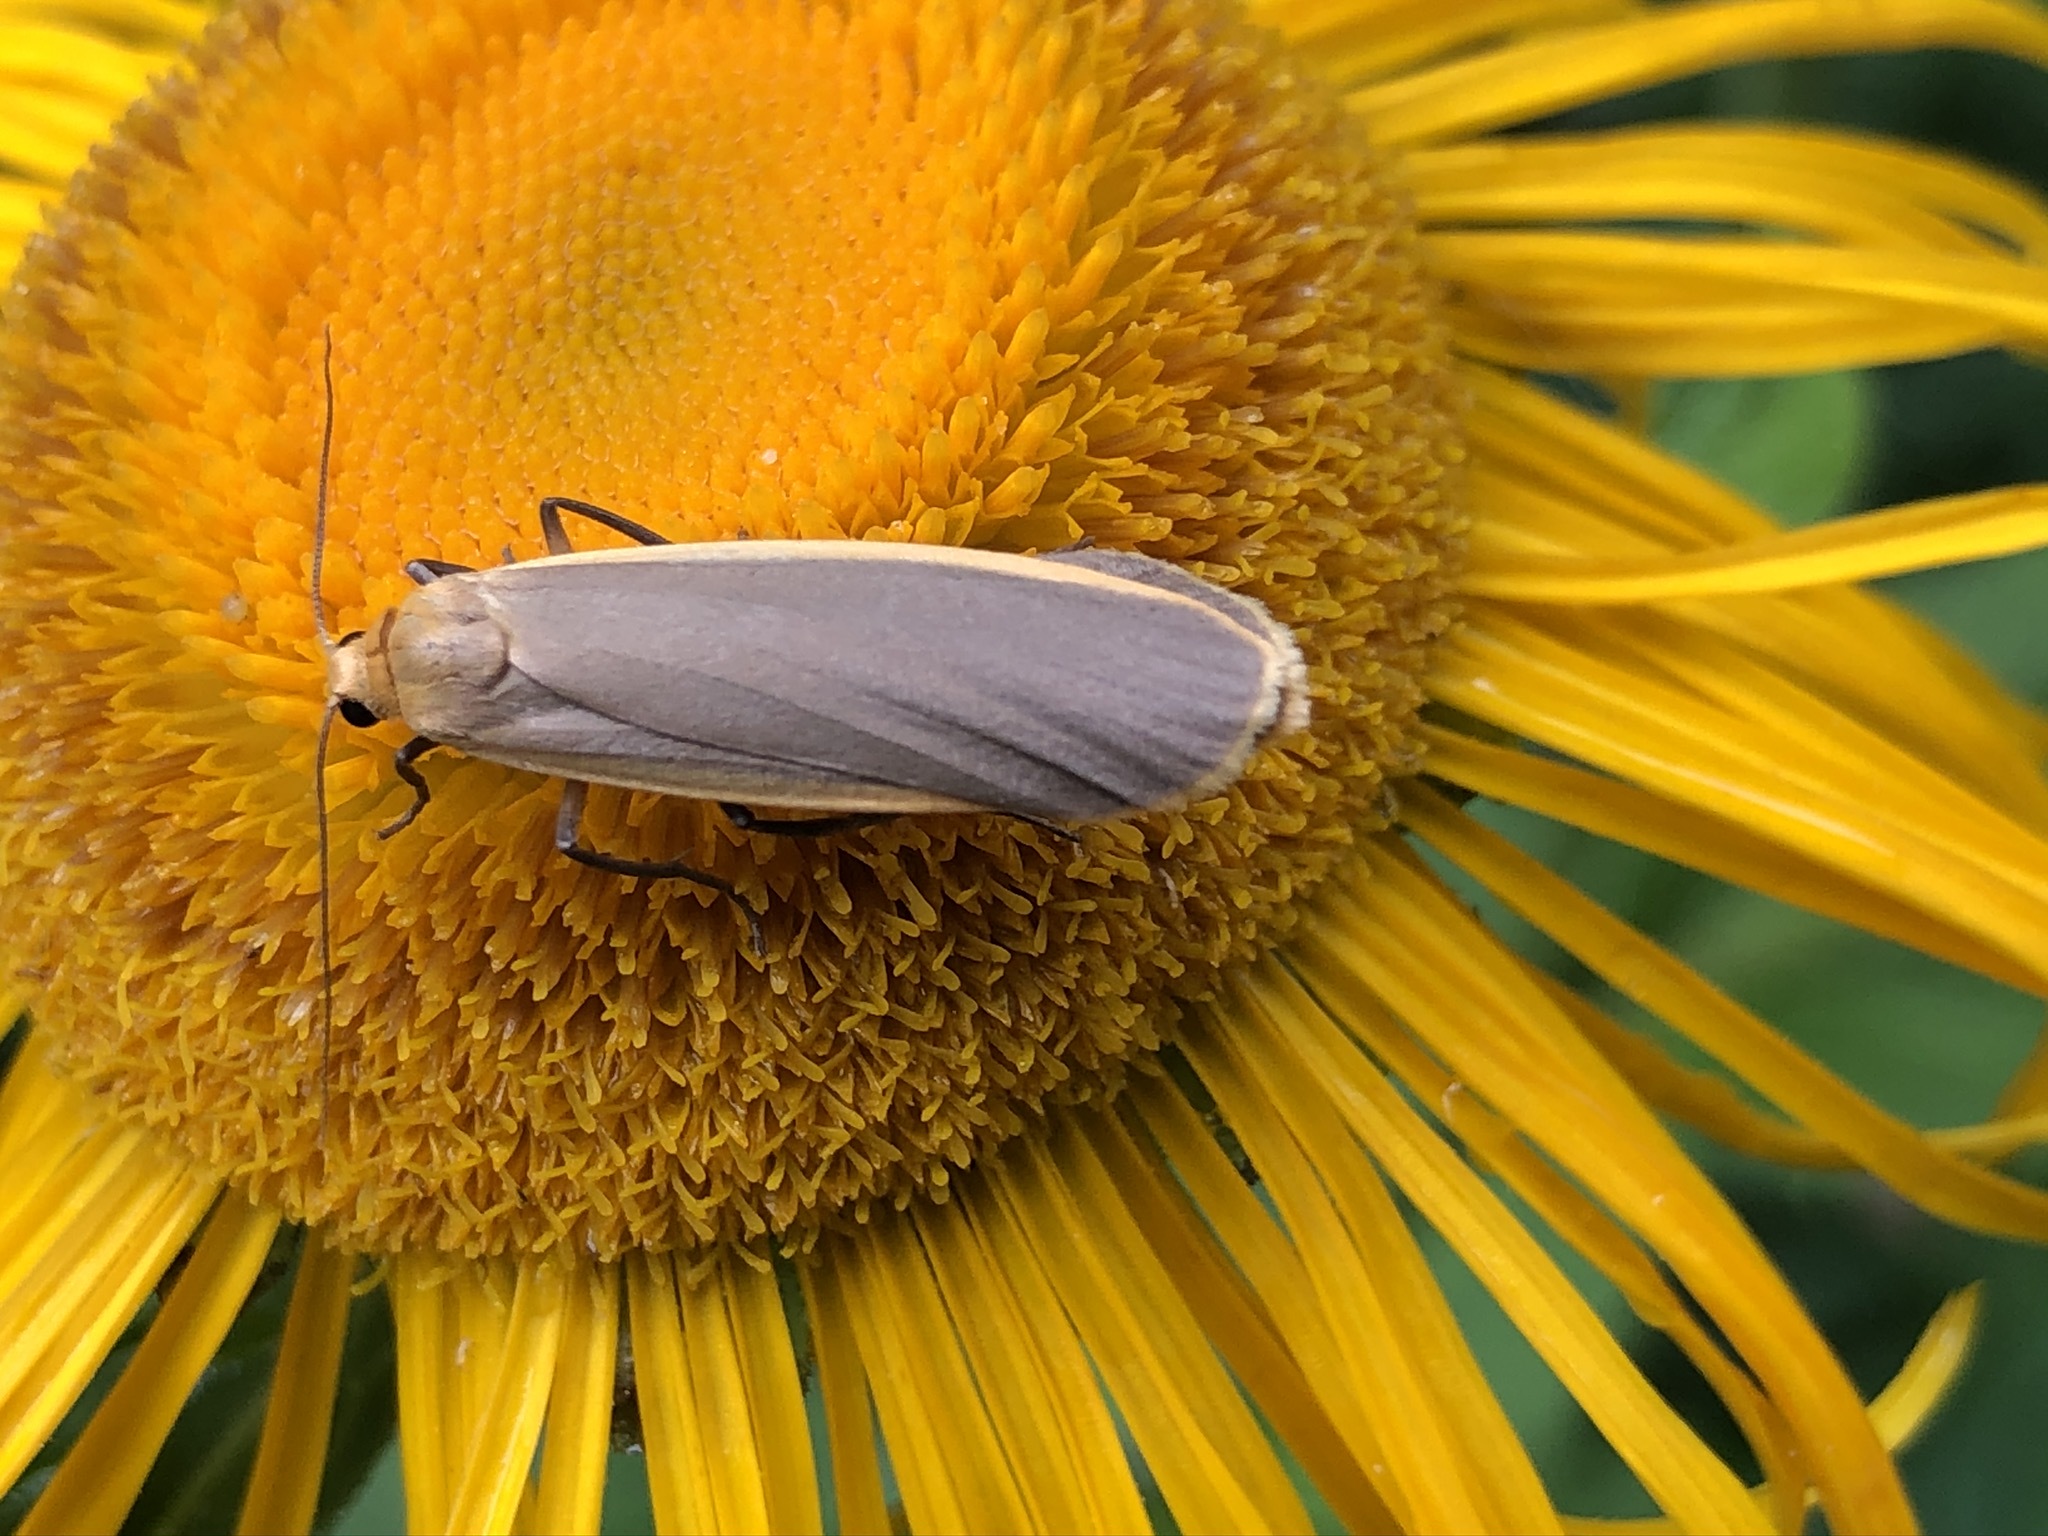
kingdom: Animalia
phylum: Arthropoda
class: Insecta
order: Lepidoptera
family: Erebidae
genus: Katha
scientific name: Katha depressa
